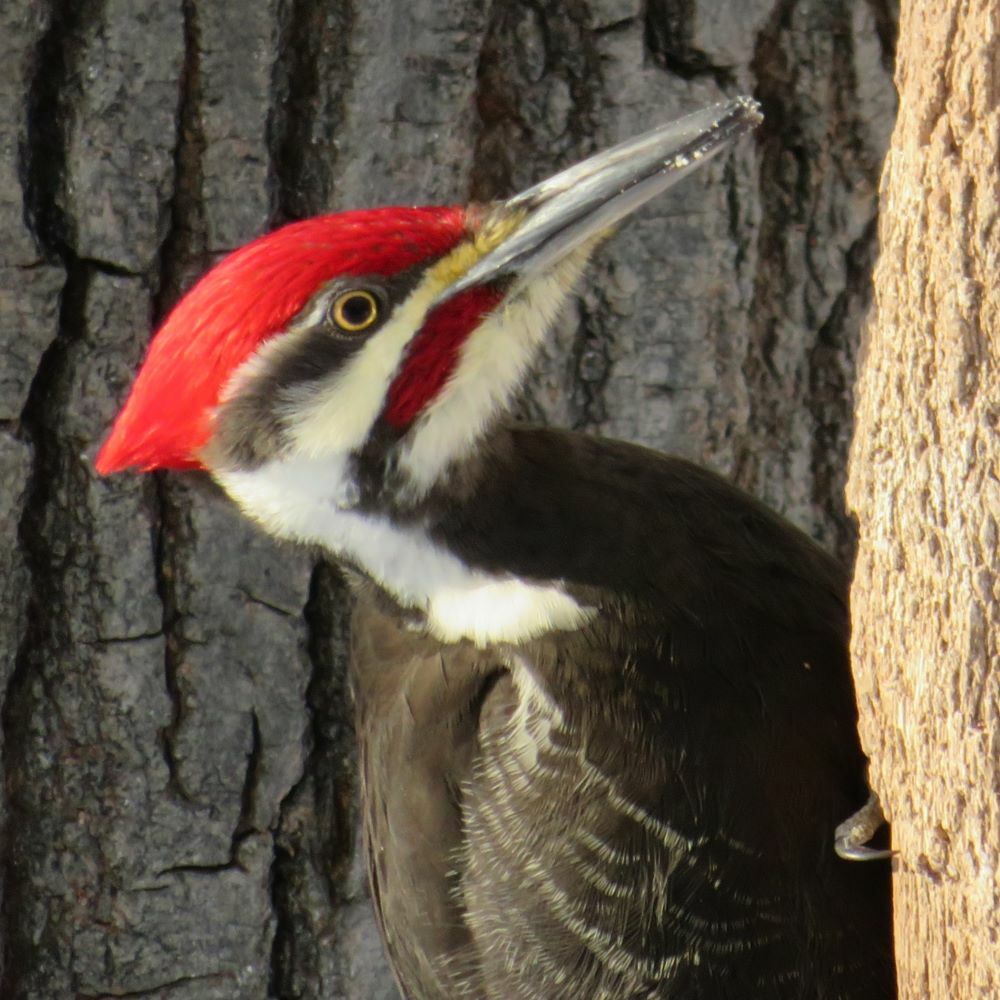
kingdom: Animalia
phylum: Chordata
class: Aves
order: Piciformes
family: Picidae
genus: Dryocopus
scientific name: Dryocopus pileatus
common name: Pileated woodpecker
